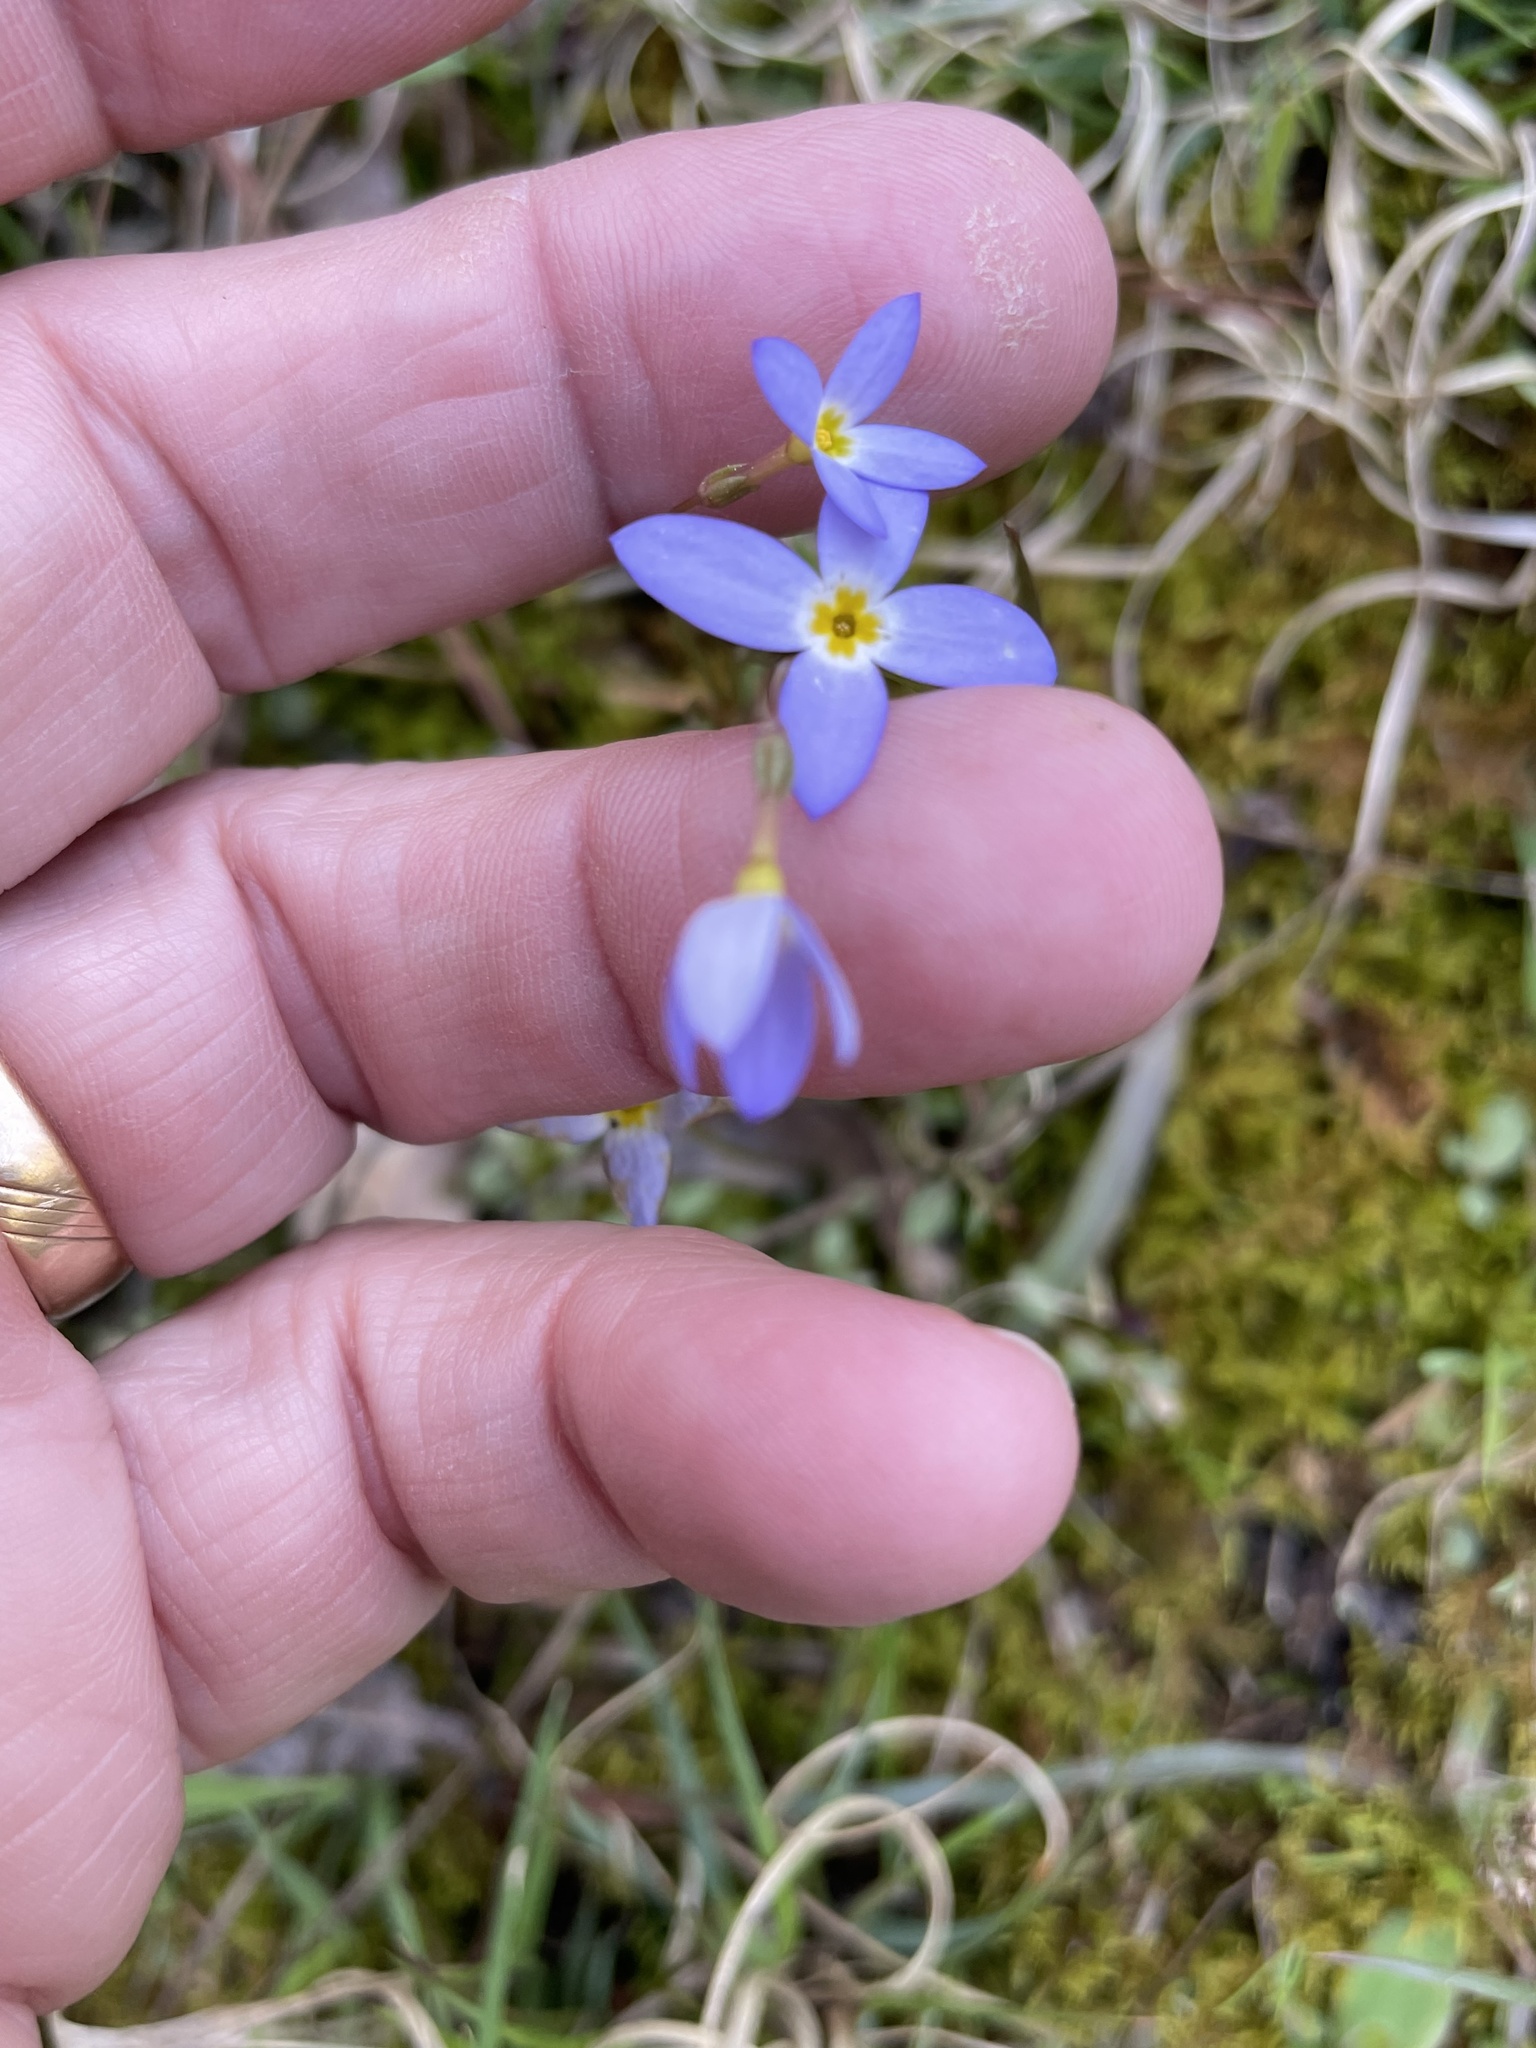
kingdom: Plantae
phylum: Tracheophyta
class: Magnoliopsida
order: Gentianales
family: Rubiaceae
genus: Houstonia
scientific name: Houstonia caerulea
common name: Bluets
